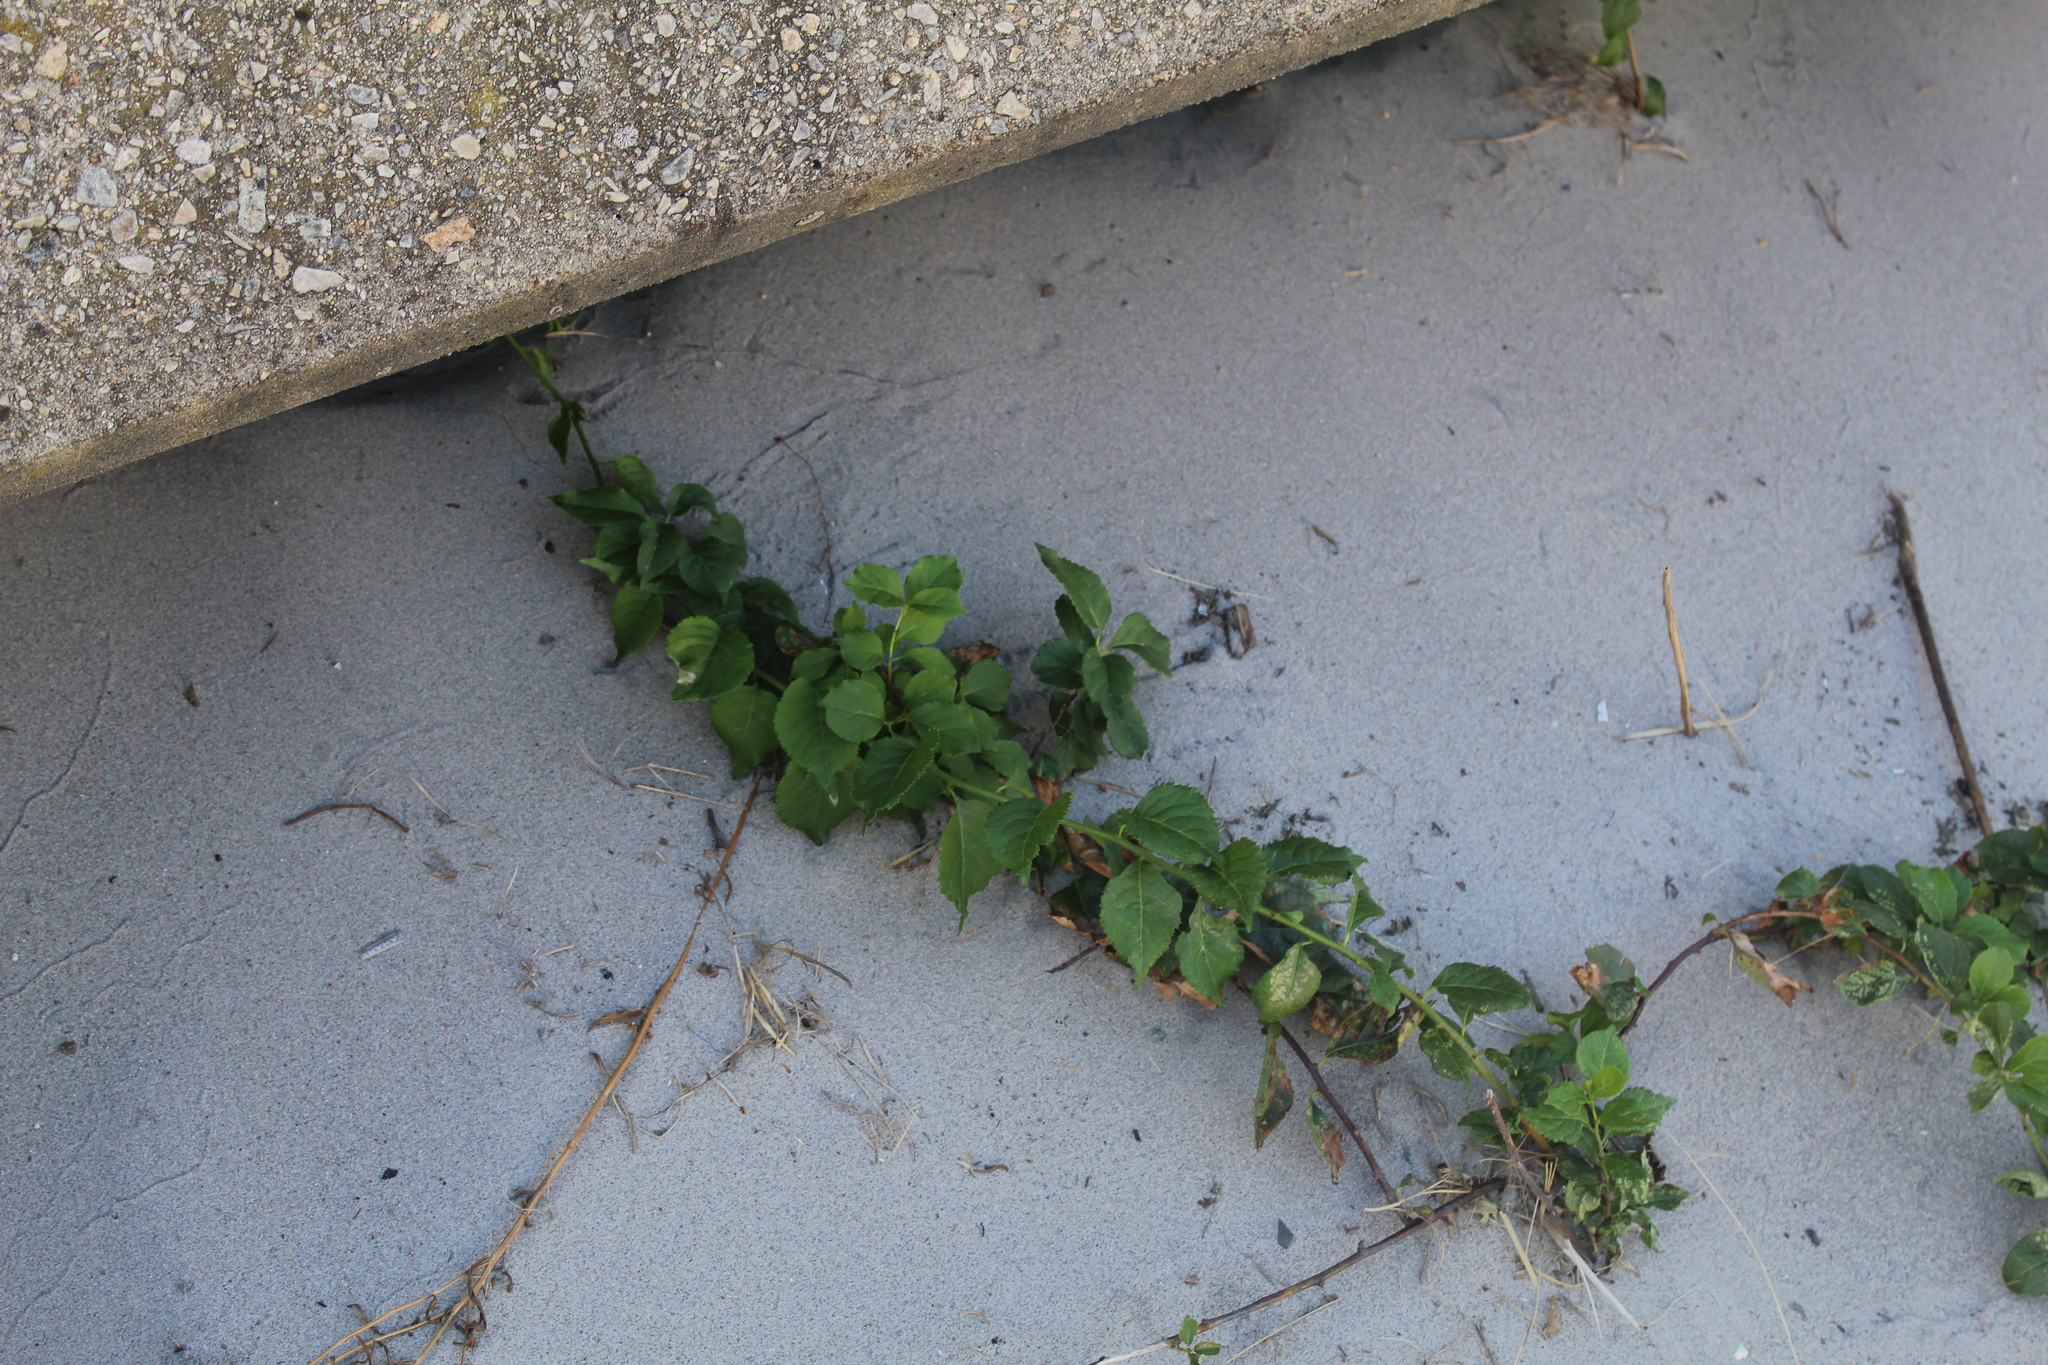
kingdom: Plantae
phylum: Tracheophyta
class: Magnoliopsida
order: Celastrales
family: Celastraceae
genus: Celastrus
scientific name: Celastrus orbiculatus
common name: Oriental bittersweet
